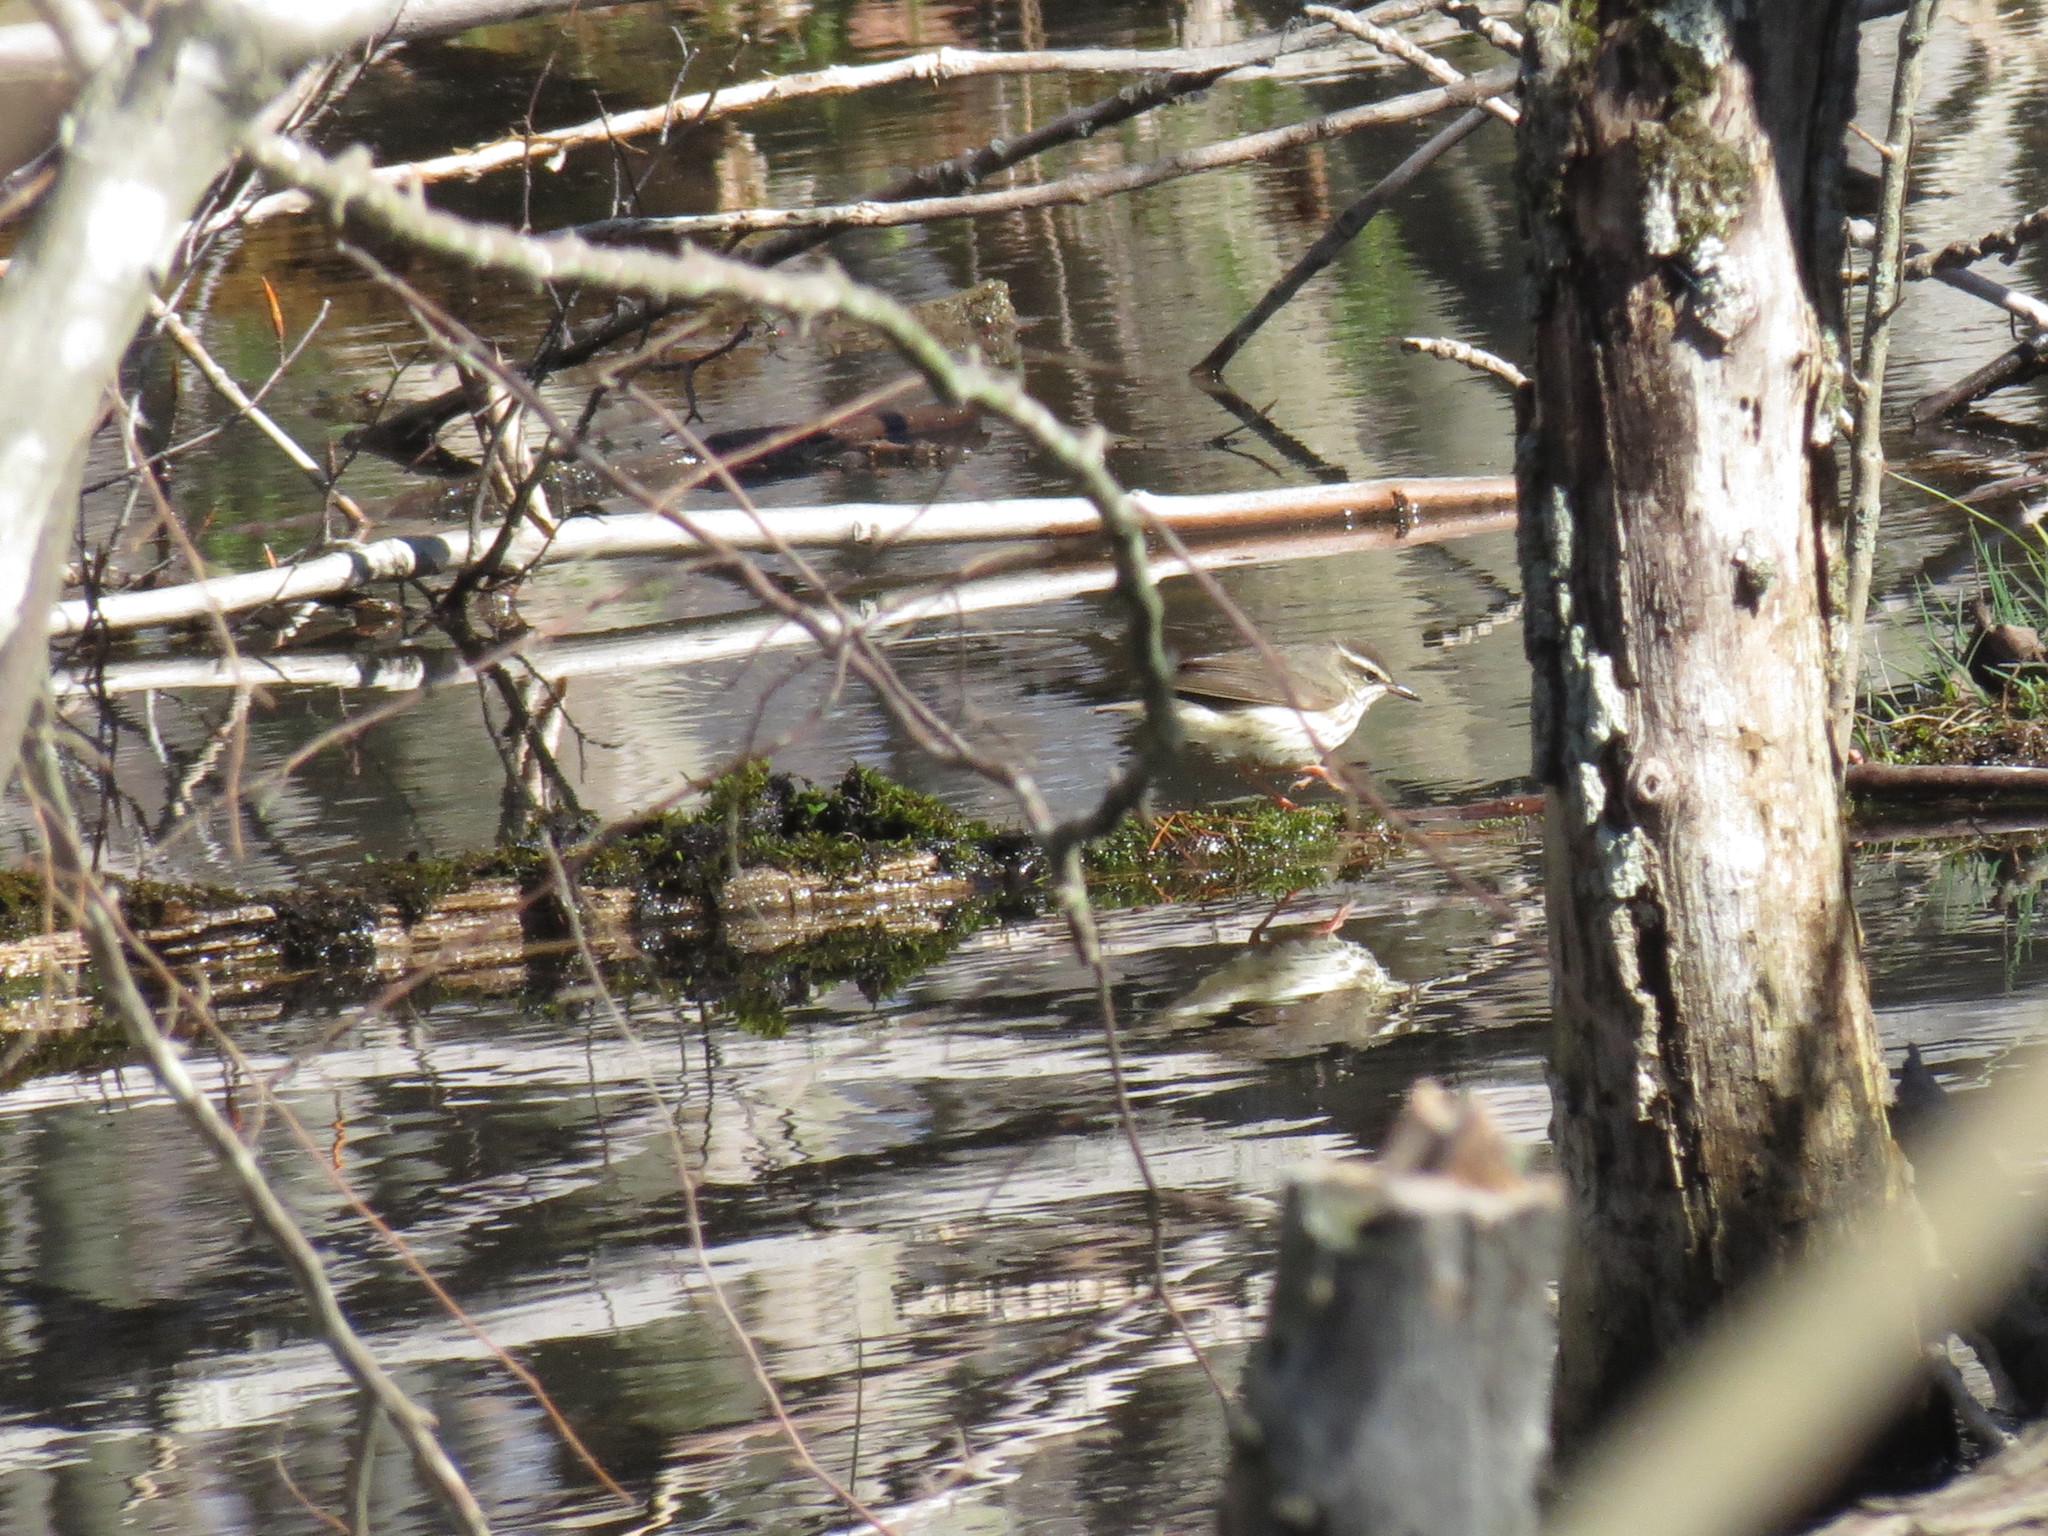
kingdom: Animalia
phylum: Chordata
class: Aves
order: Passeriformes
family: Parulidae
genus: Parkesia
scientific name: Parkesia motacilla
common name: Louisiana waterthrush
